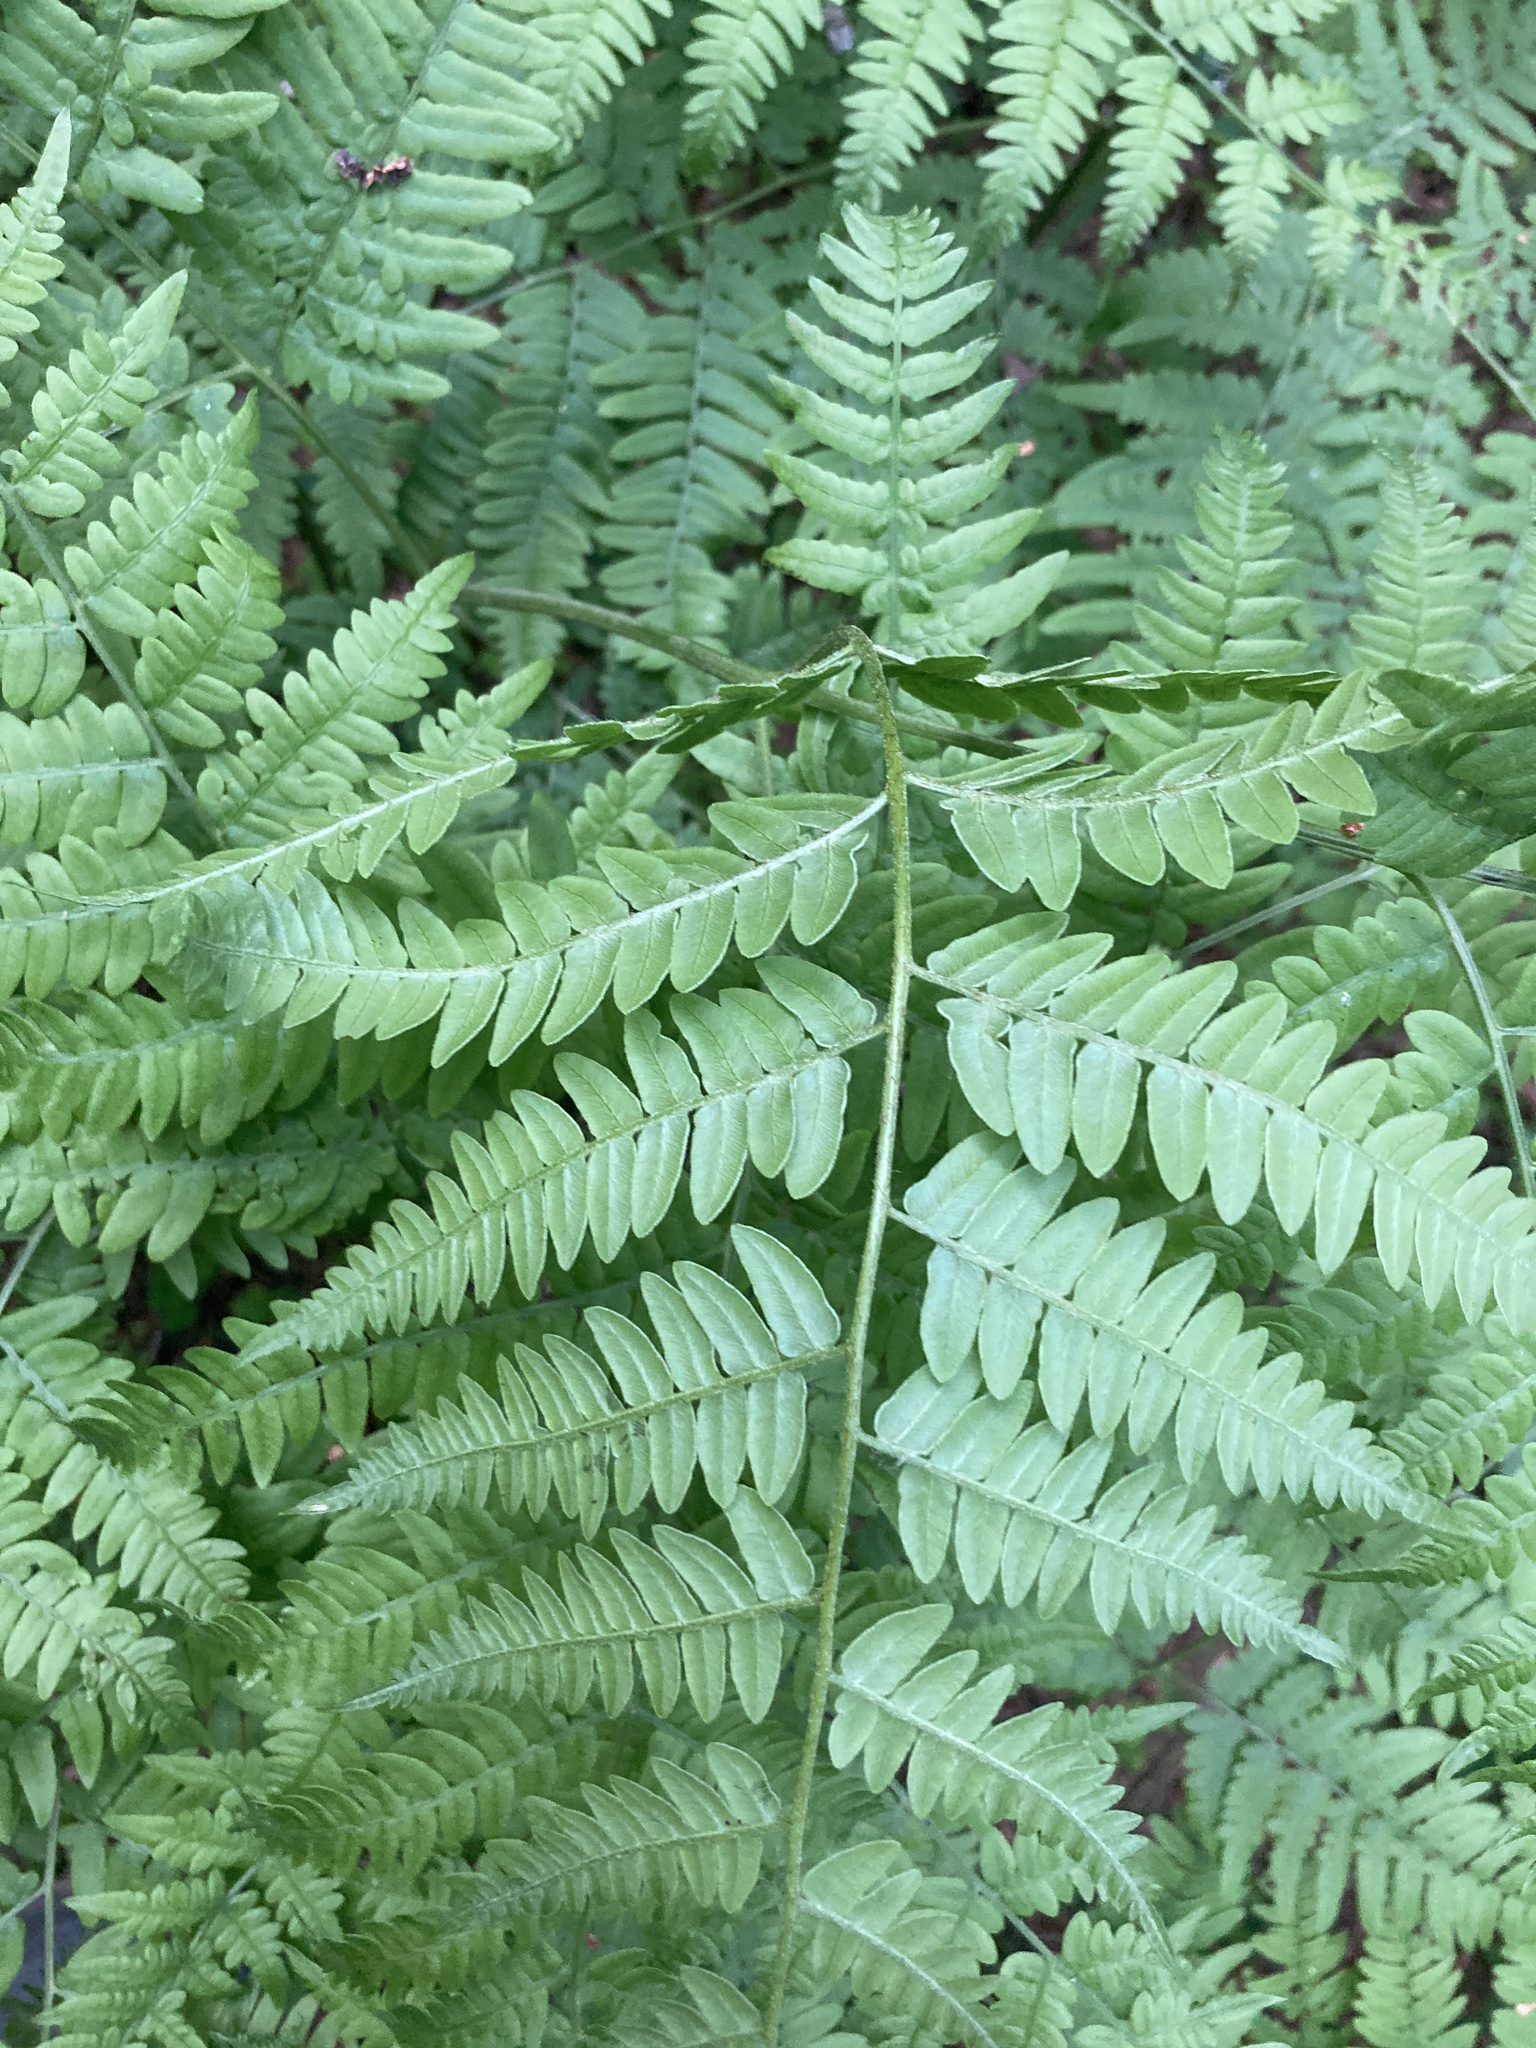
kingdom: Plantae
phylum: Tracheophyta
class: Polypodiopsida
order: Polypodiales
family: Dennstaedtiaceae
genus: Pteridium
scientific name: Pteridium aquilinum
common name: Bracken
